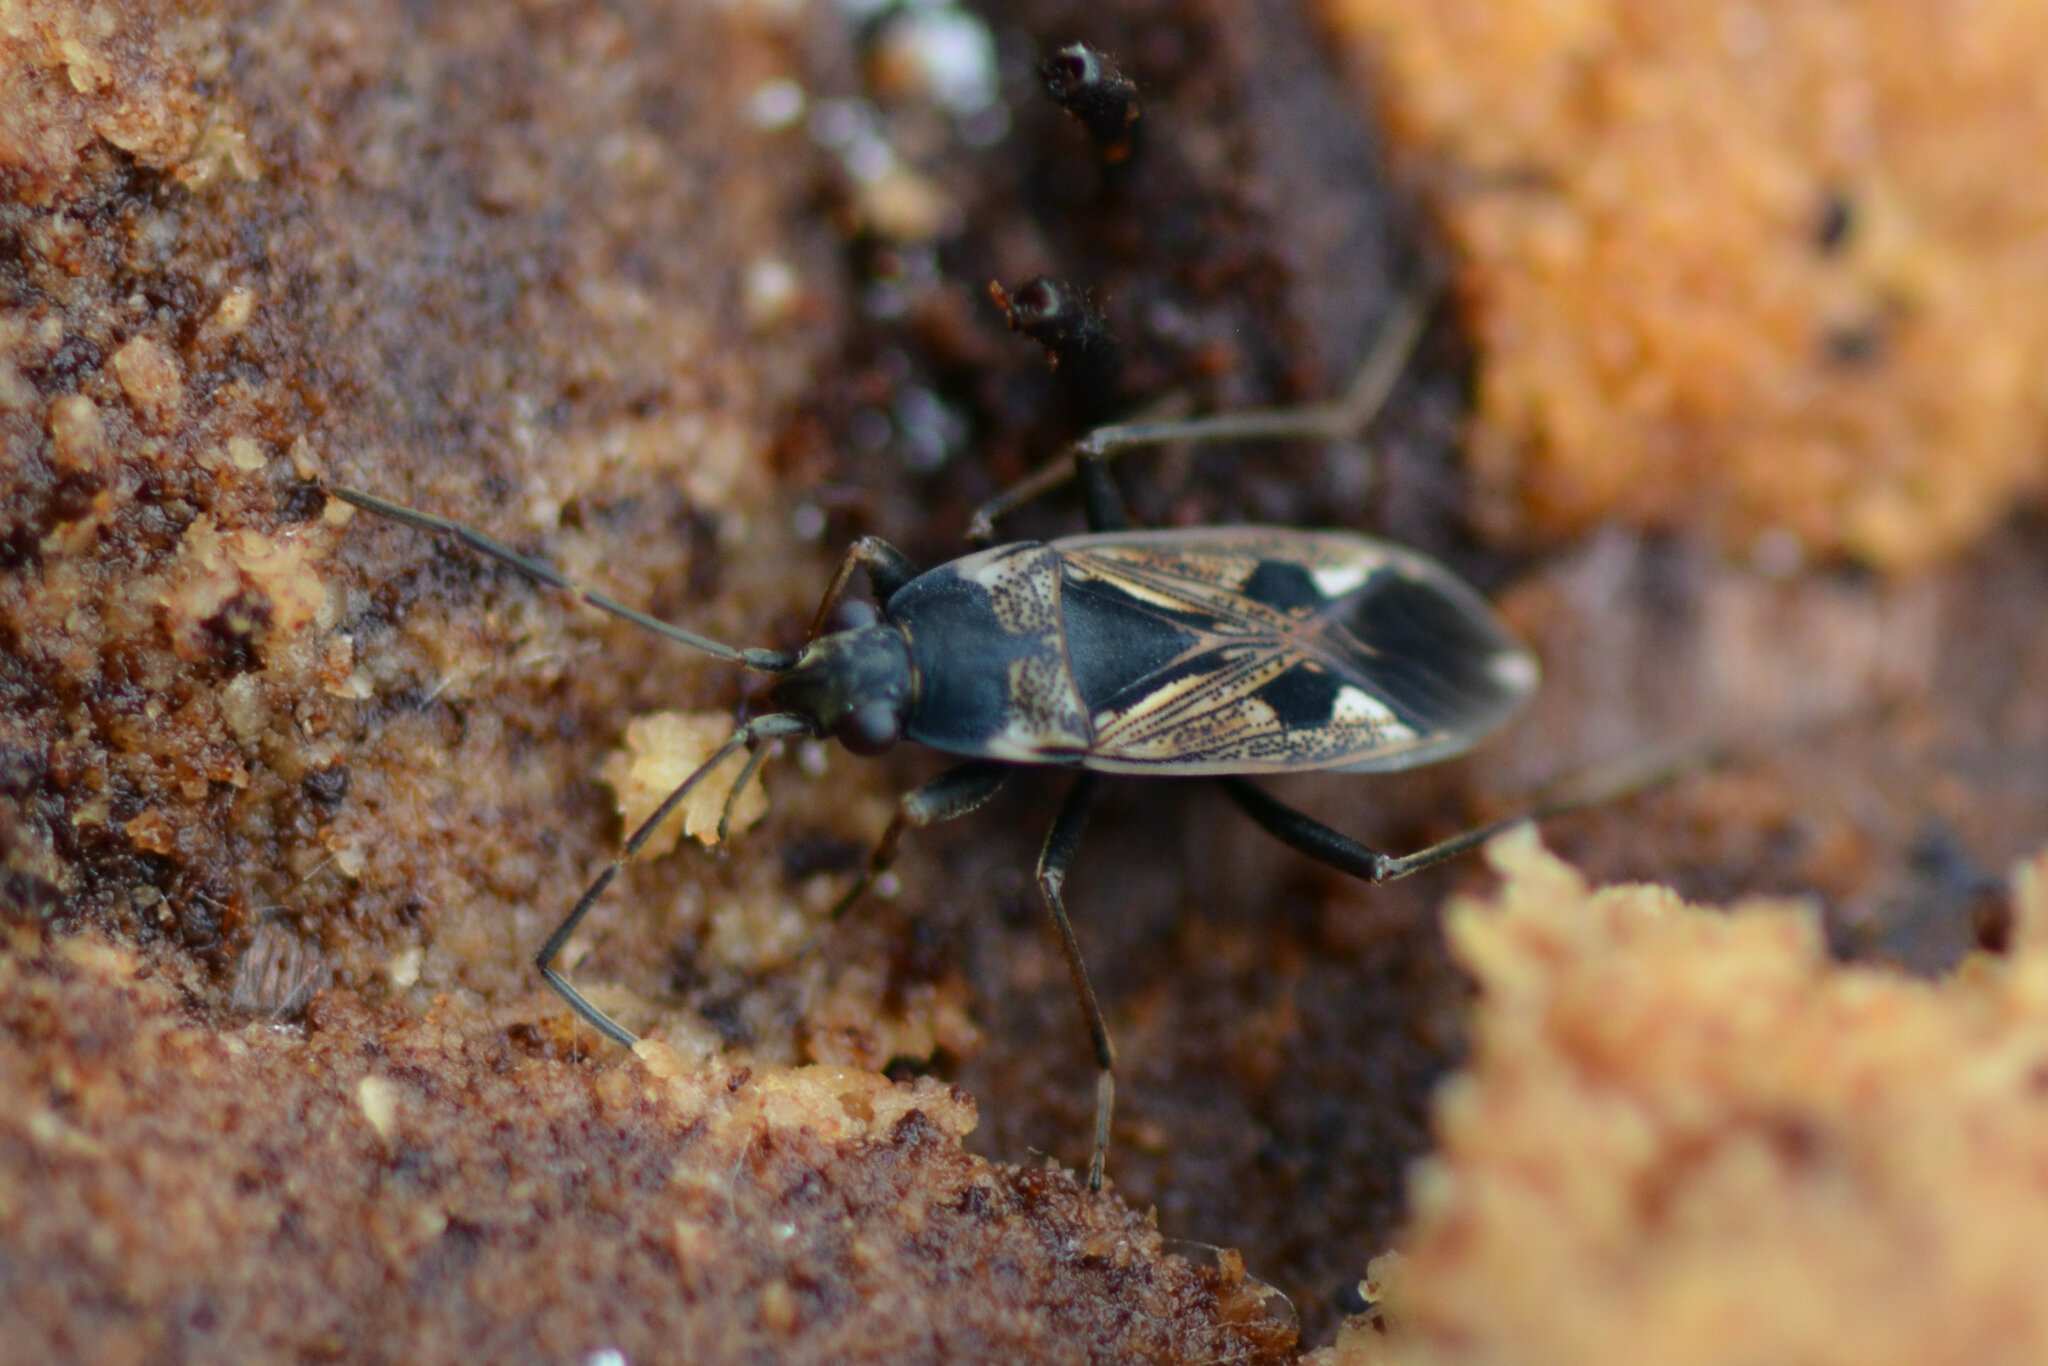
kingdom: Animalia
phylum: Arthropoda
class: Insecta
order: Hemiptera
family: Rhyparochromidae
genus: Rhyparochromus
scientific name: Rhyparochromus vulgaris
